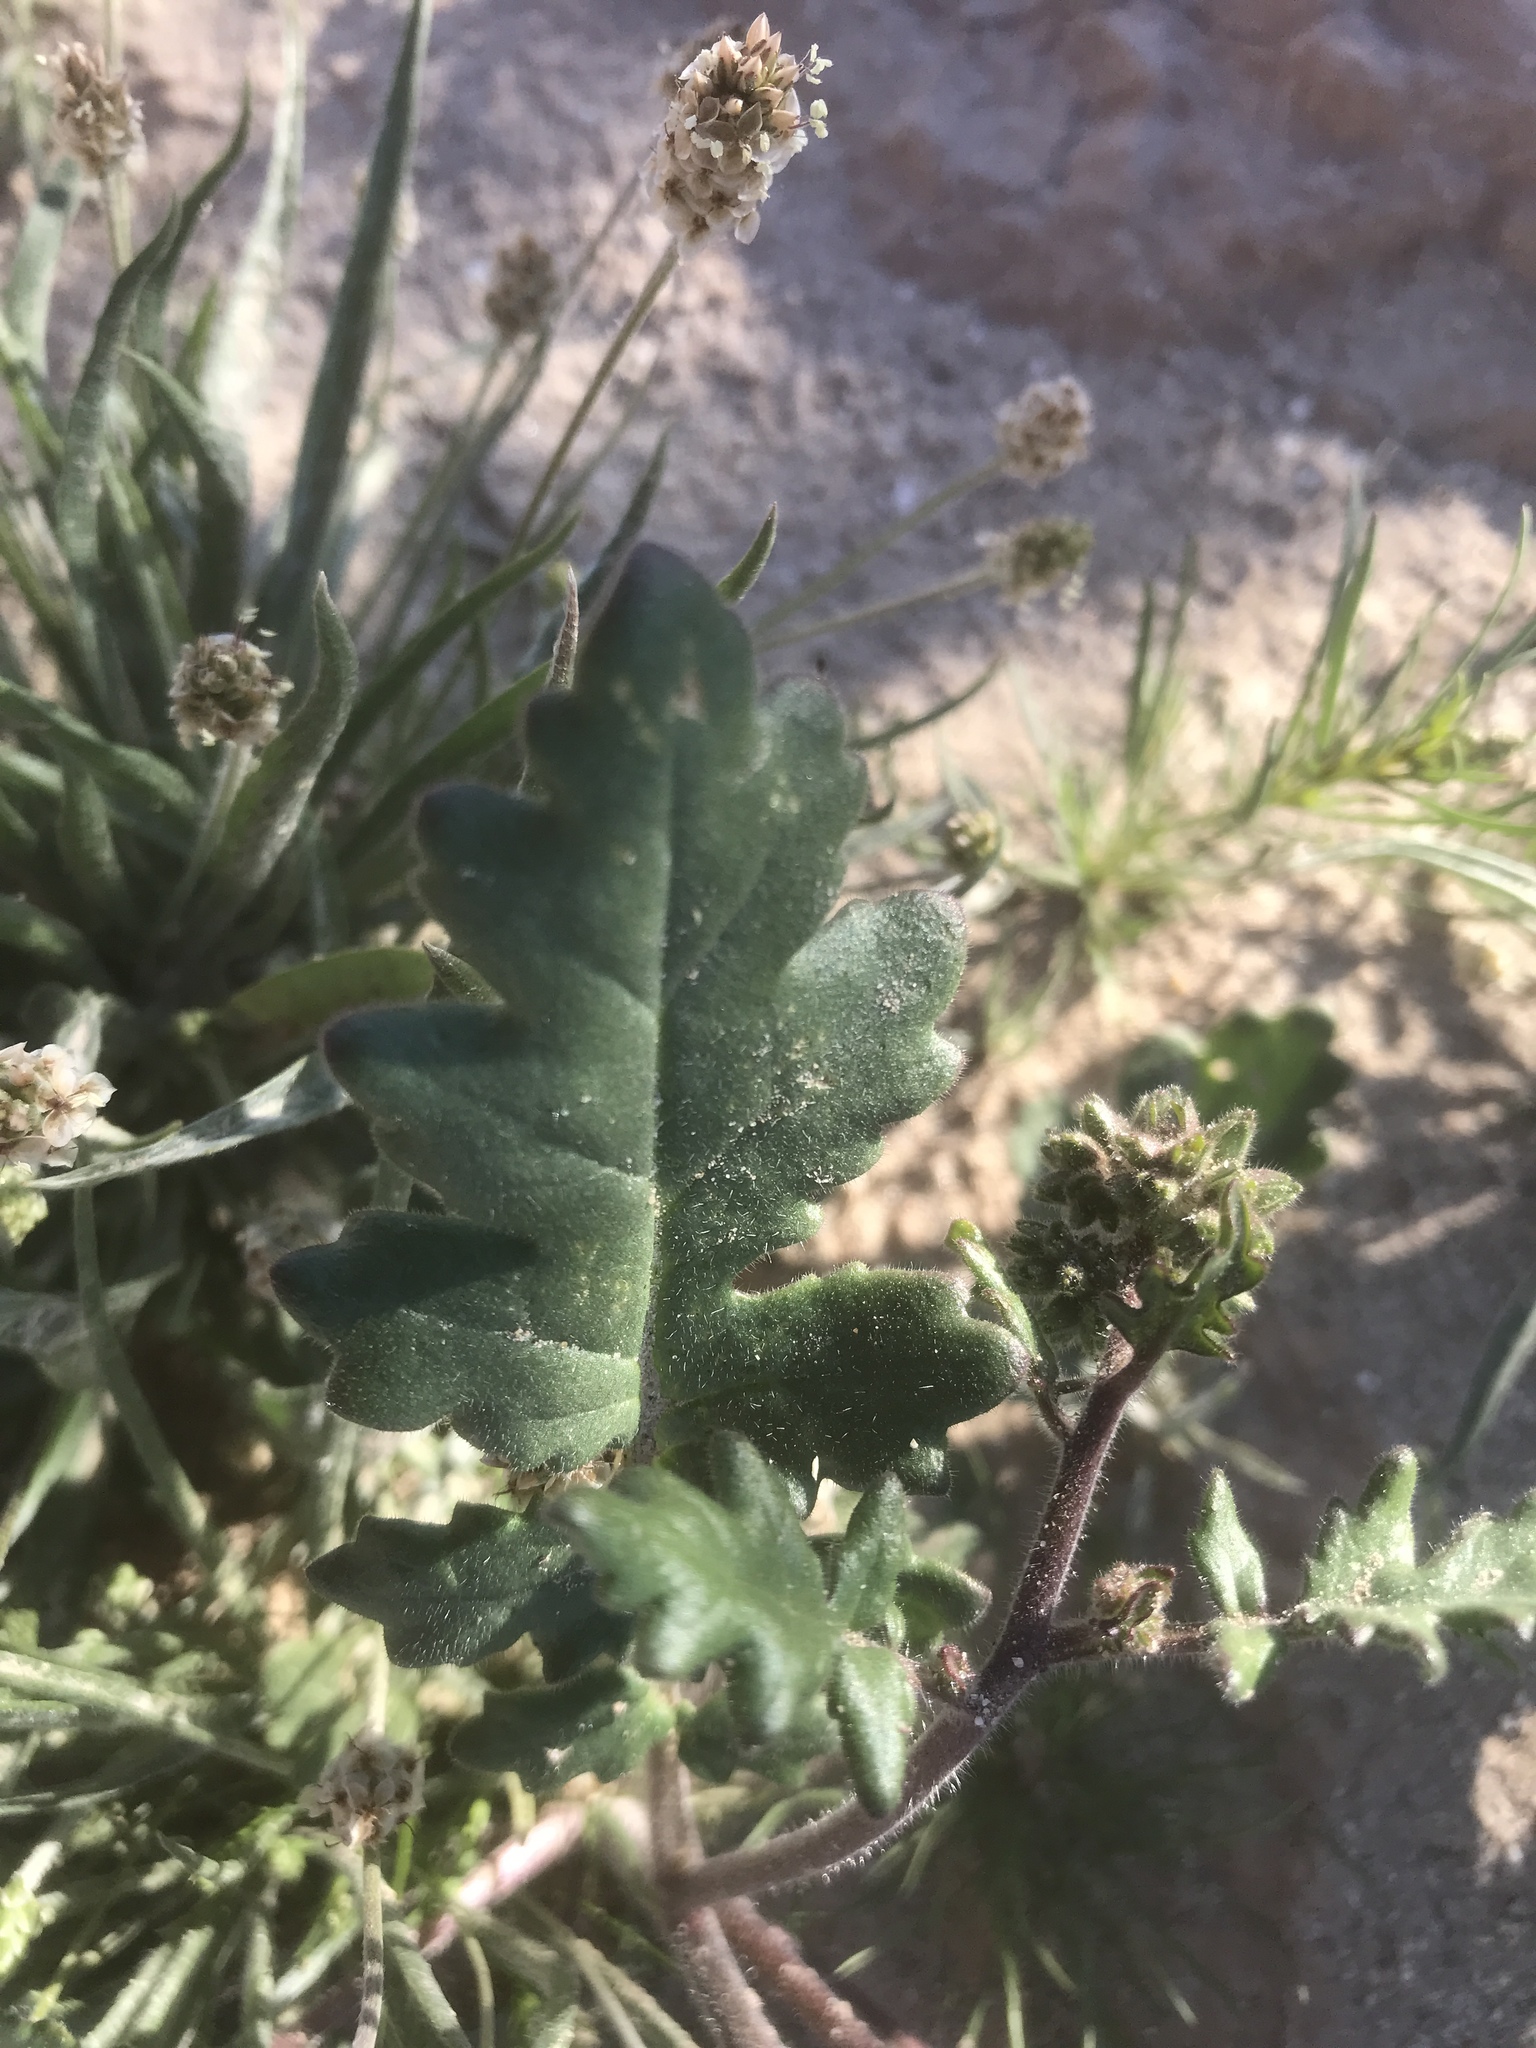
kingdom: Plantae
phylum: Tracheophyta
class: Magnoliopsida
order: Boraginales
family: Hydrophyllaceae
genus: Phacelia
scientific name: Phacelia crenulata
